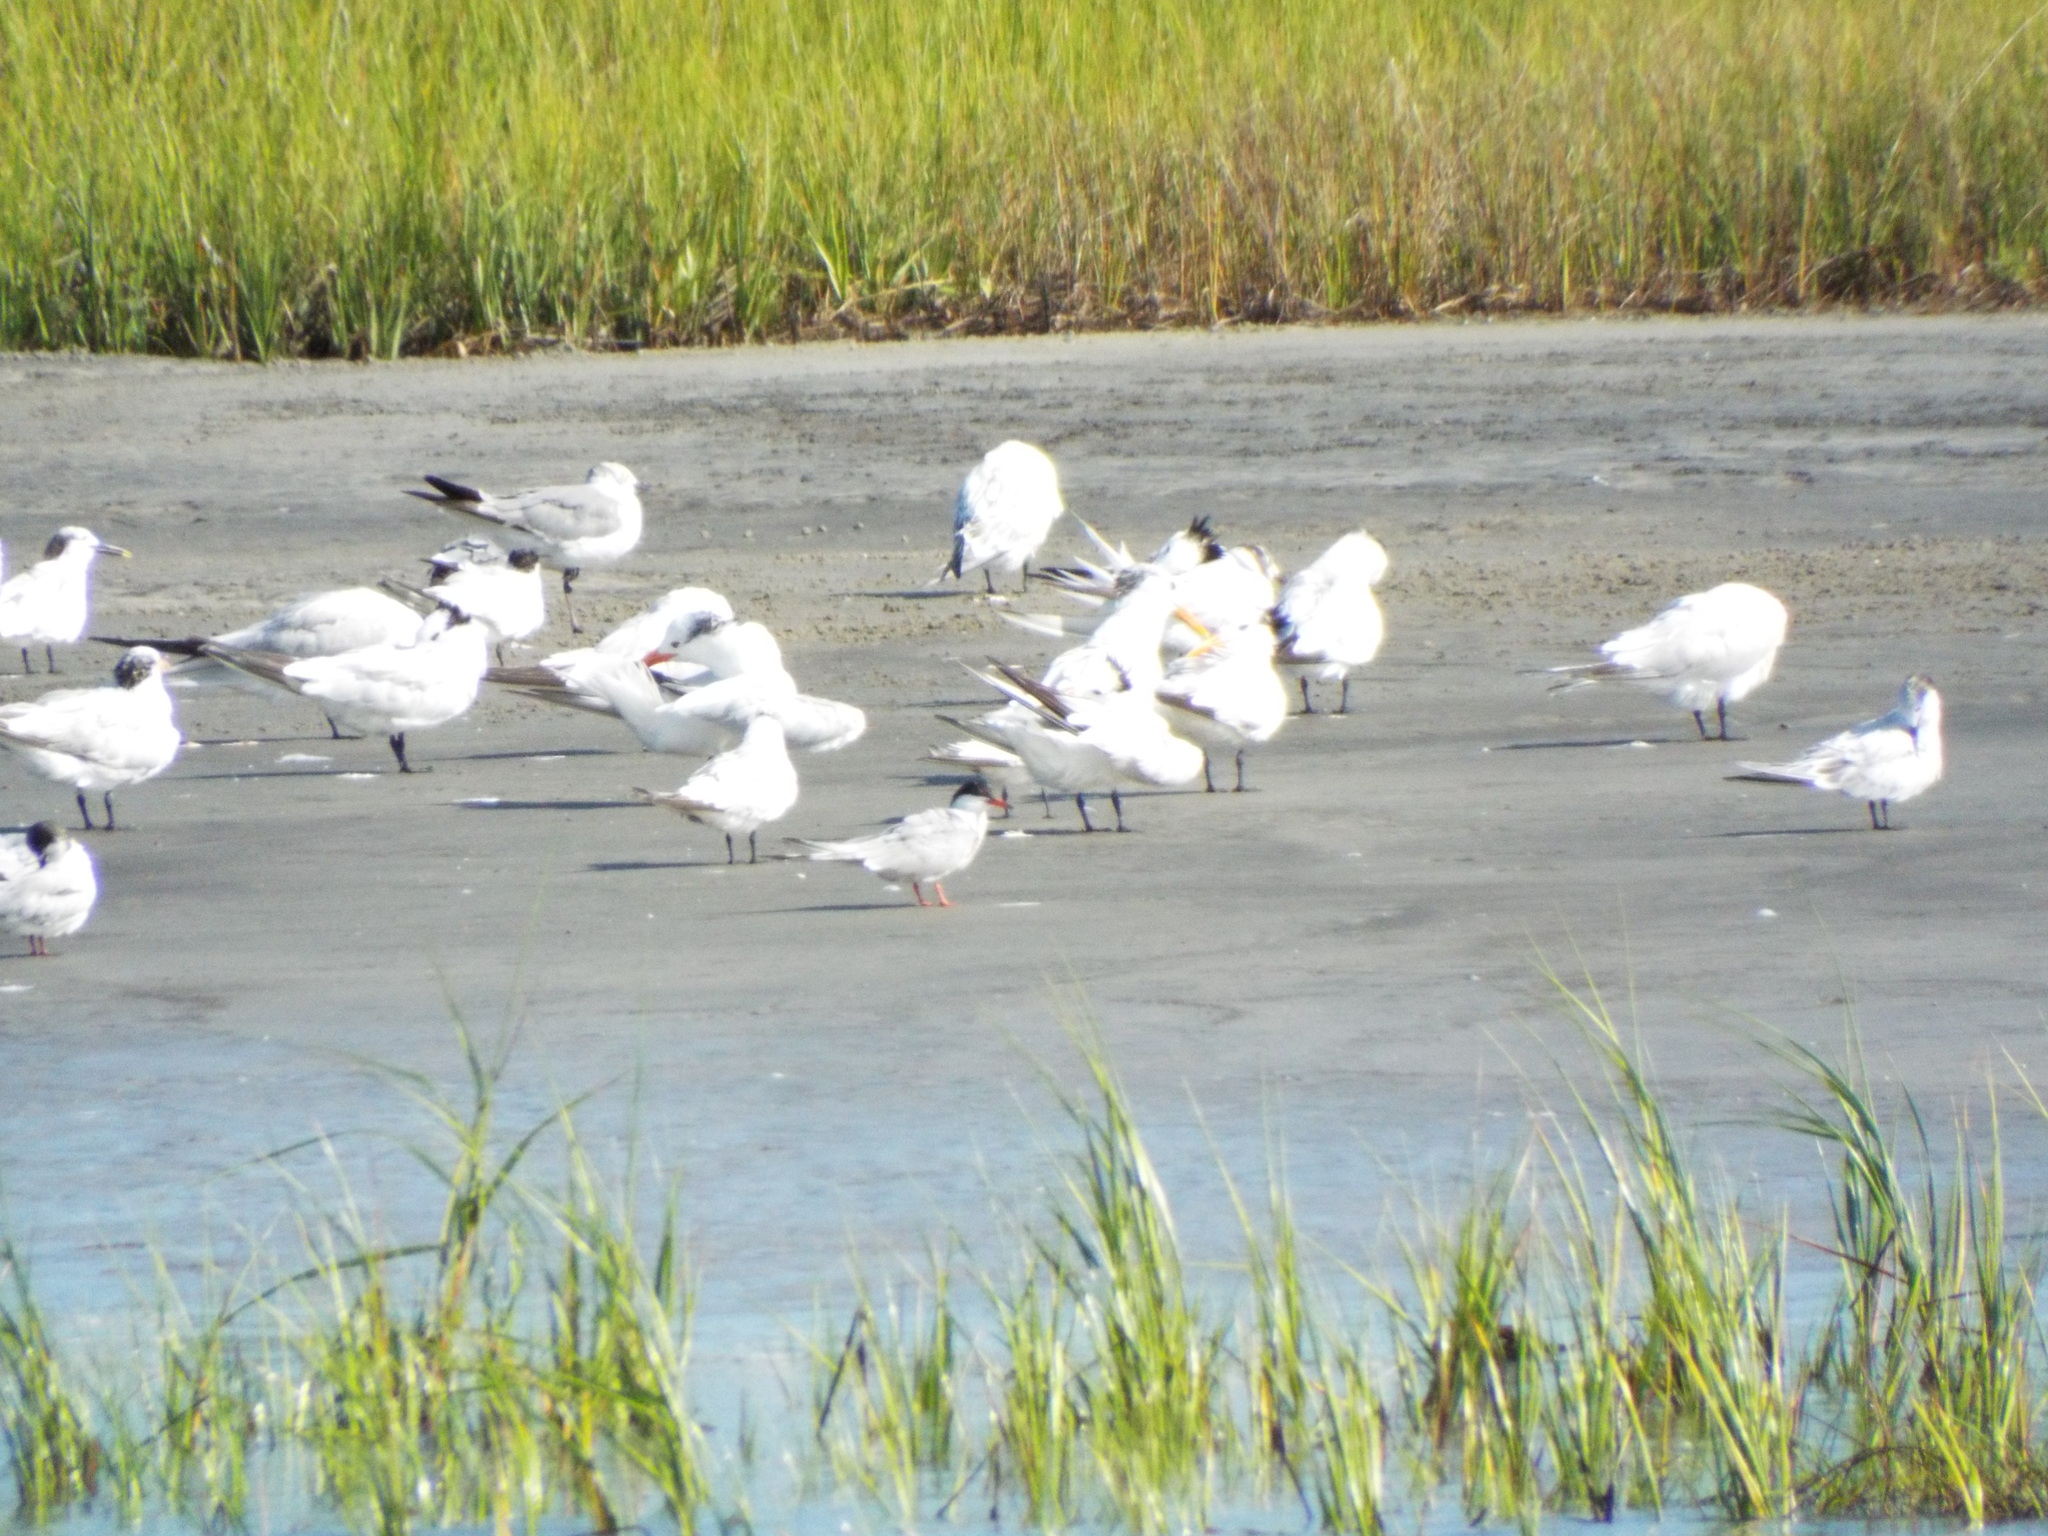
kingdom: Animalia
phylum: Chordata
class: Aves
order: Charadriiformes
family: Laridae
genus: Sterna
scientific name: Sterna hirundo
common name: Common tern
